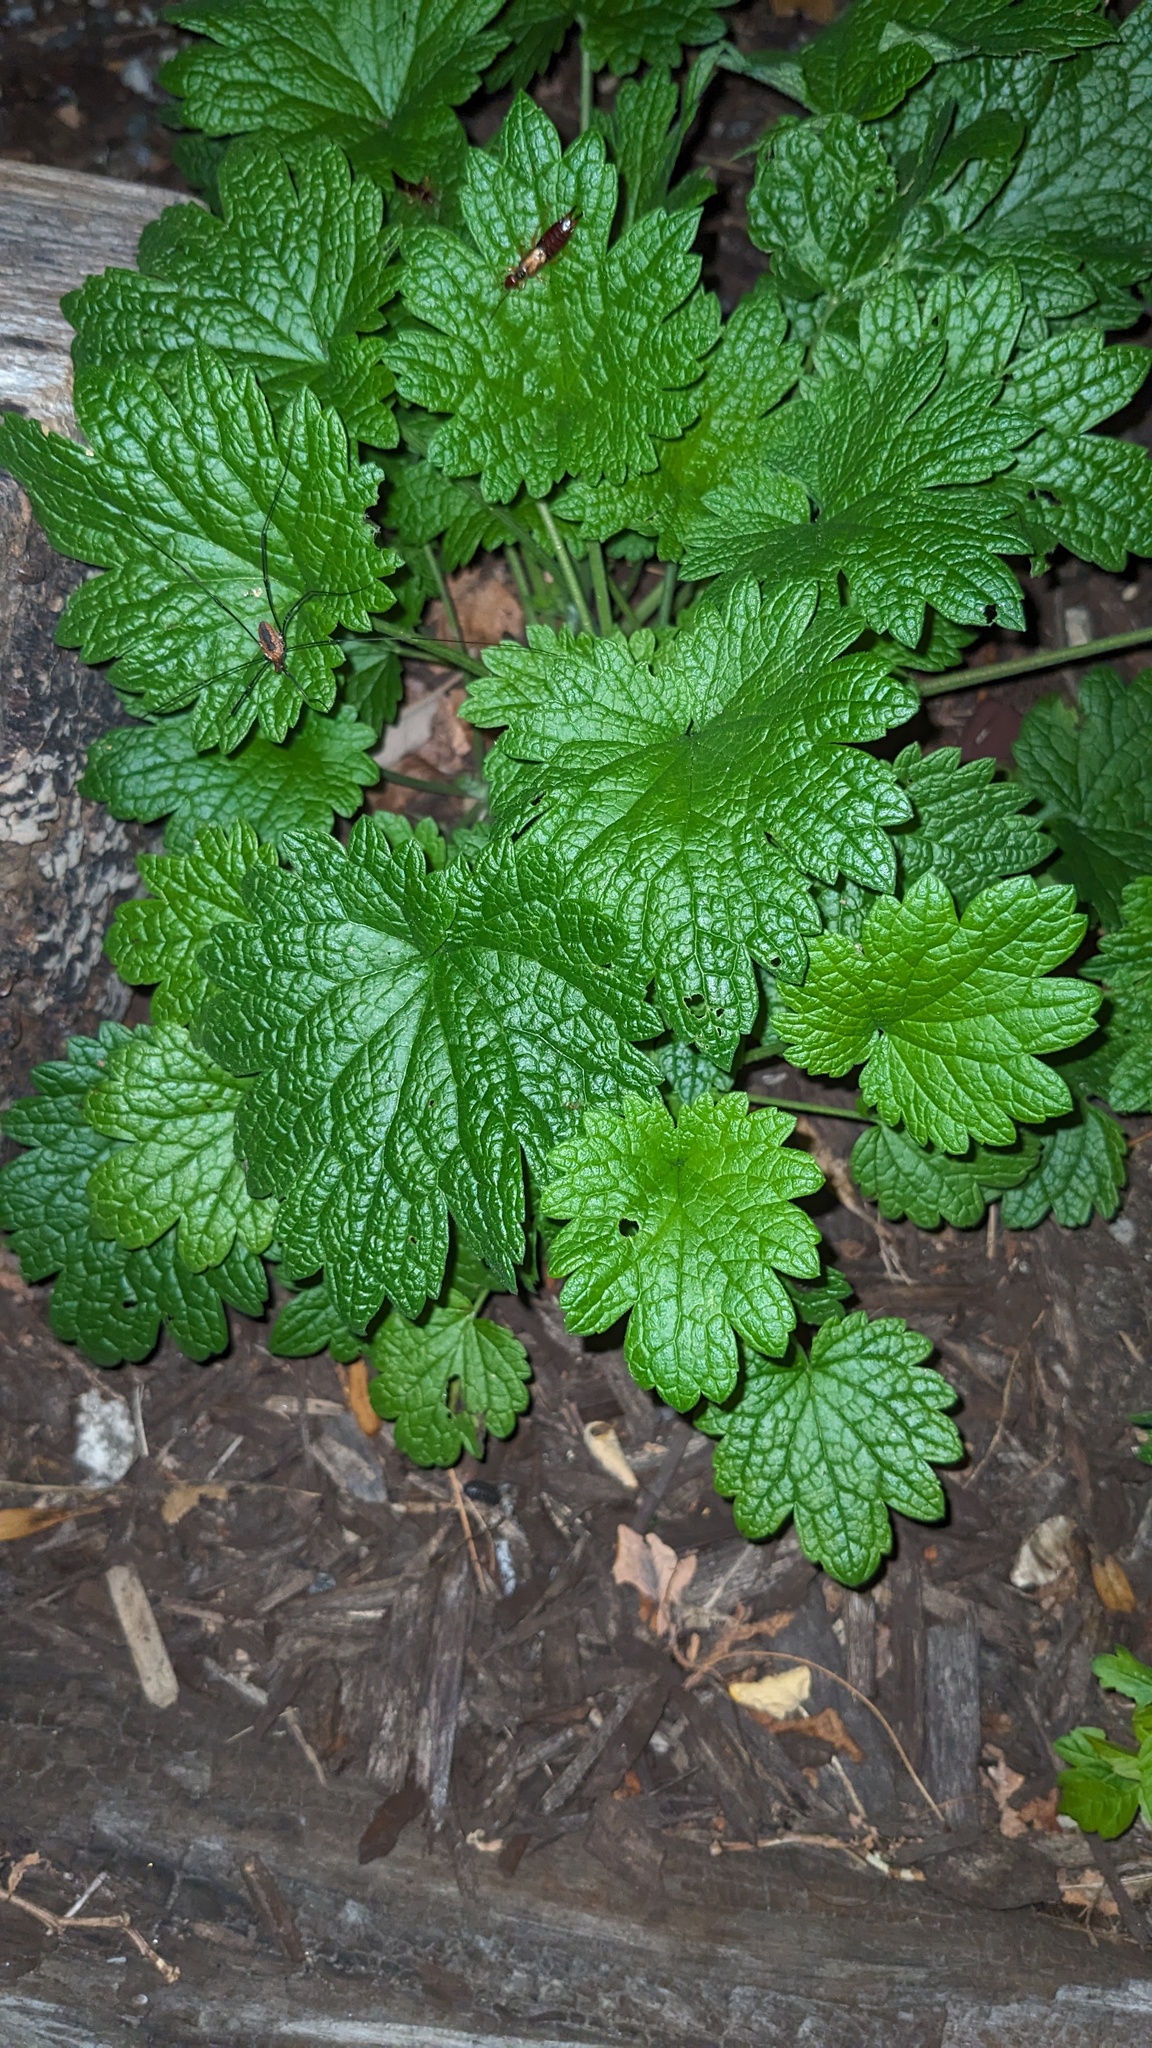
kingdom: Plantae
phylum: Tracheophyta
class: Magnoliopsida
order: Lamiales
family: Lamiaceae
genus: Leonurus
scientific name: Leonurus cardiaca
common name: Motherwort
